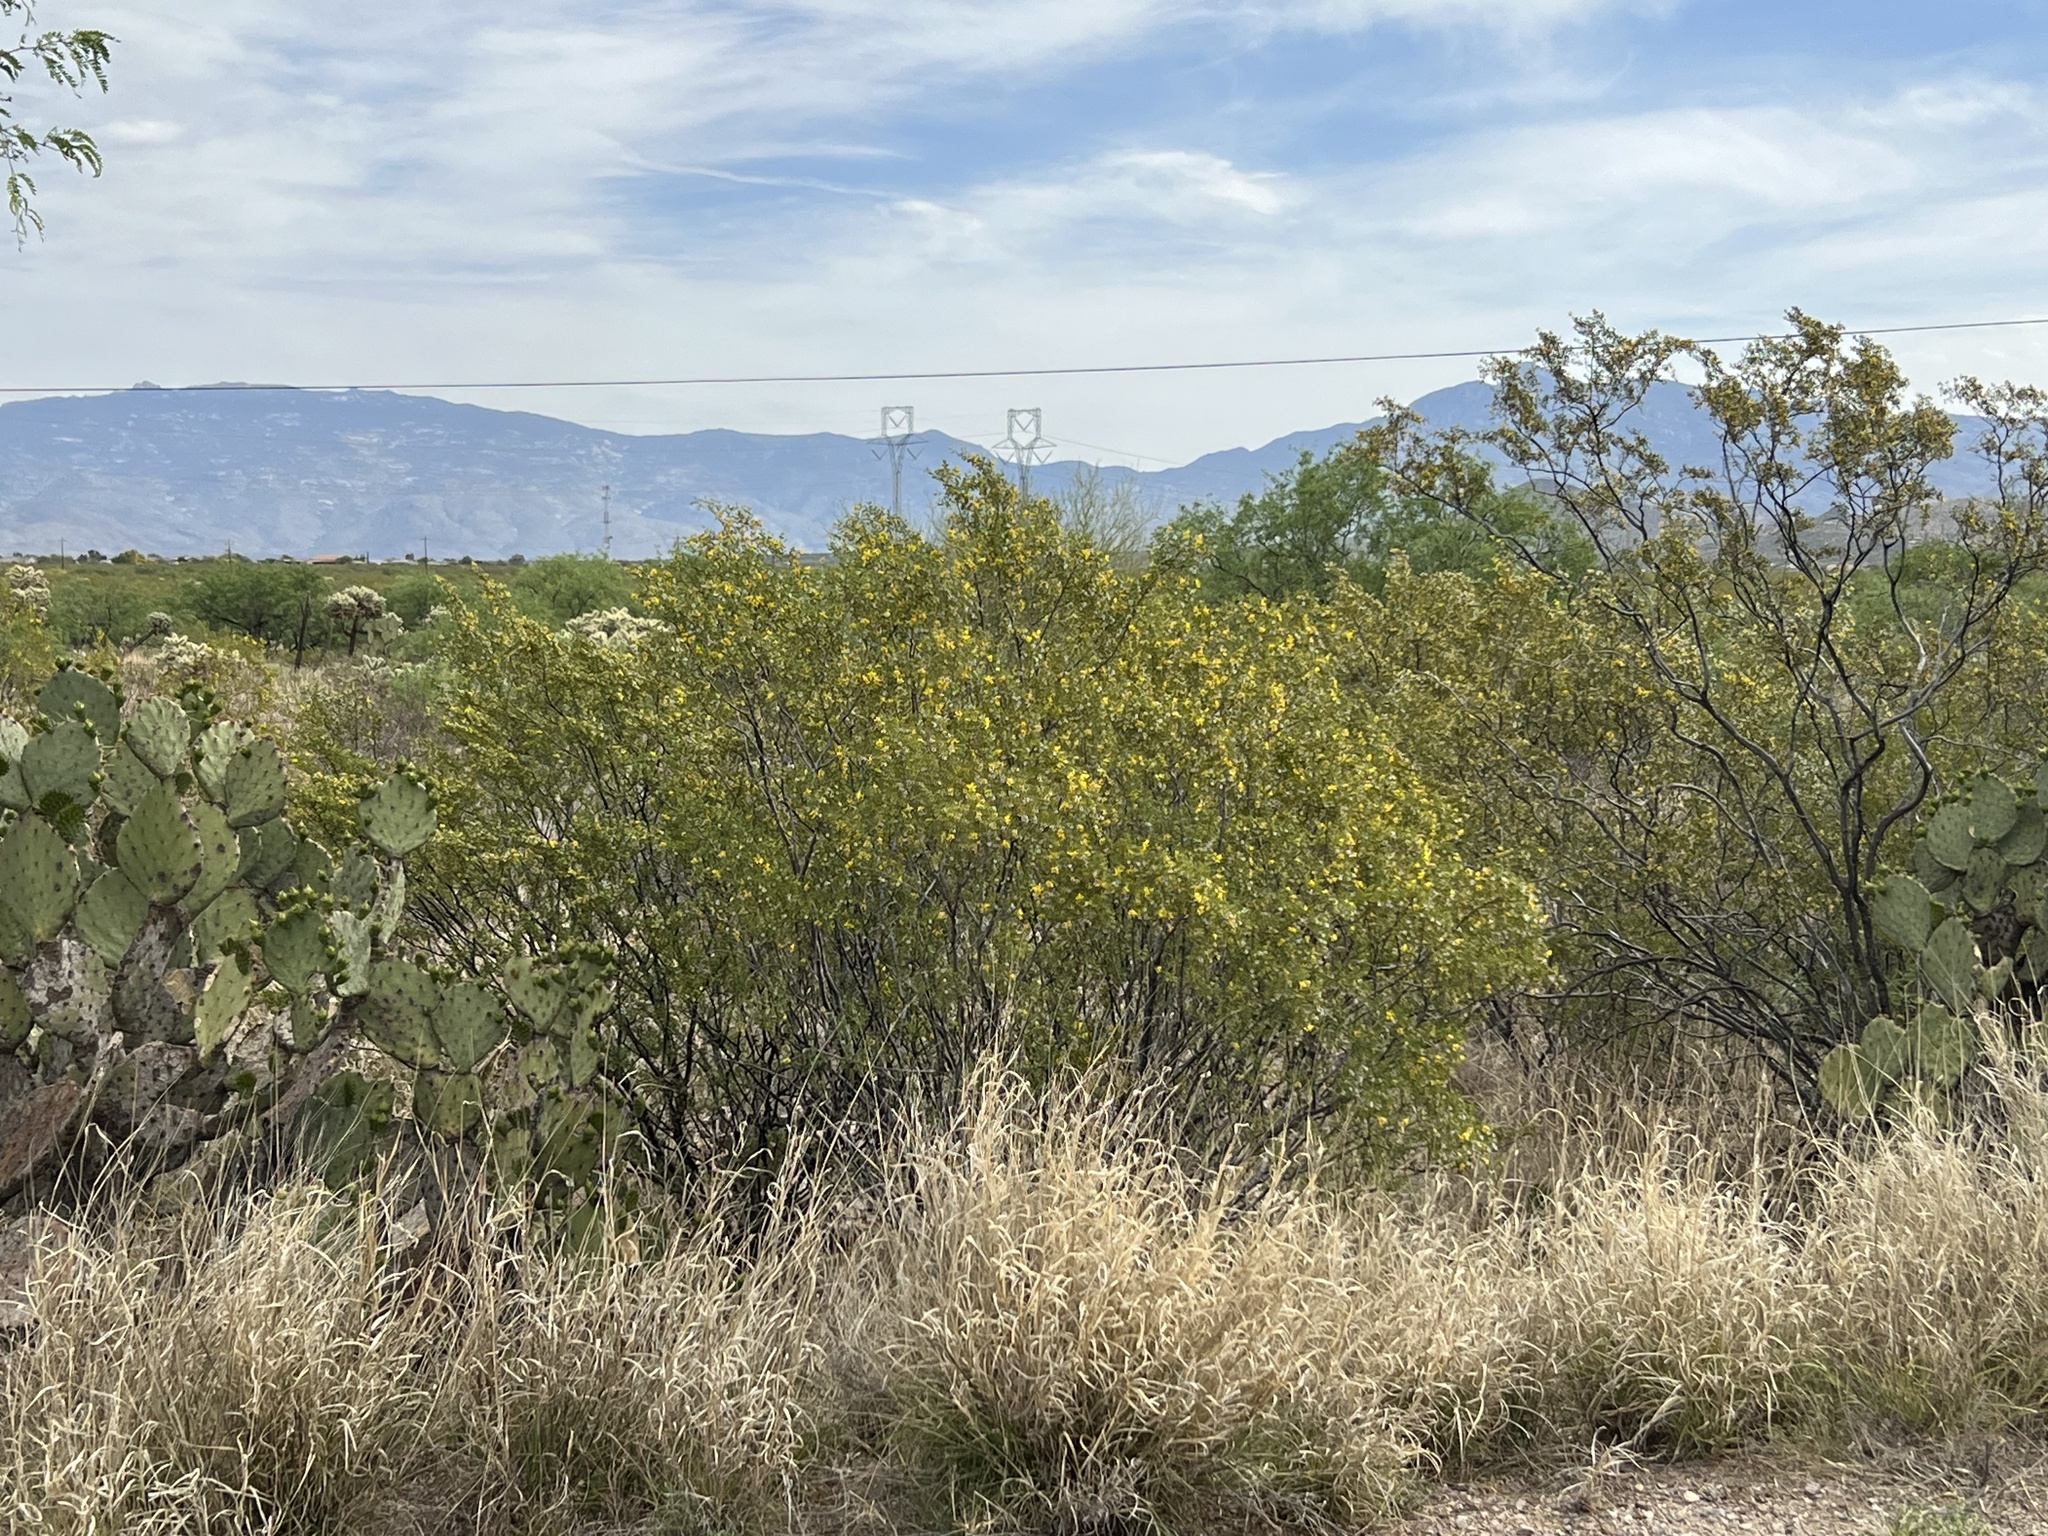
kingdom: Plantae
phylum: Tracheophyta
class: Magnoliopsida
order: Zygophyllales
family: Zygophyllaceae
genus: Larrea
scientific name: Larrea tridentata
